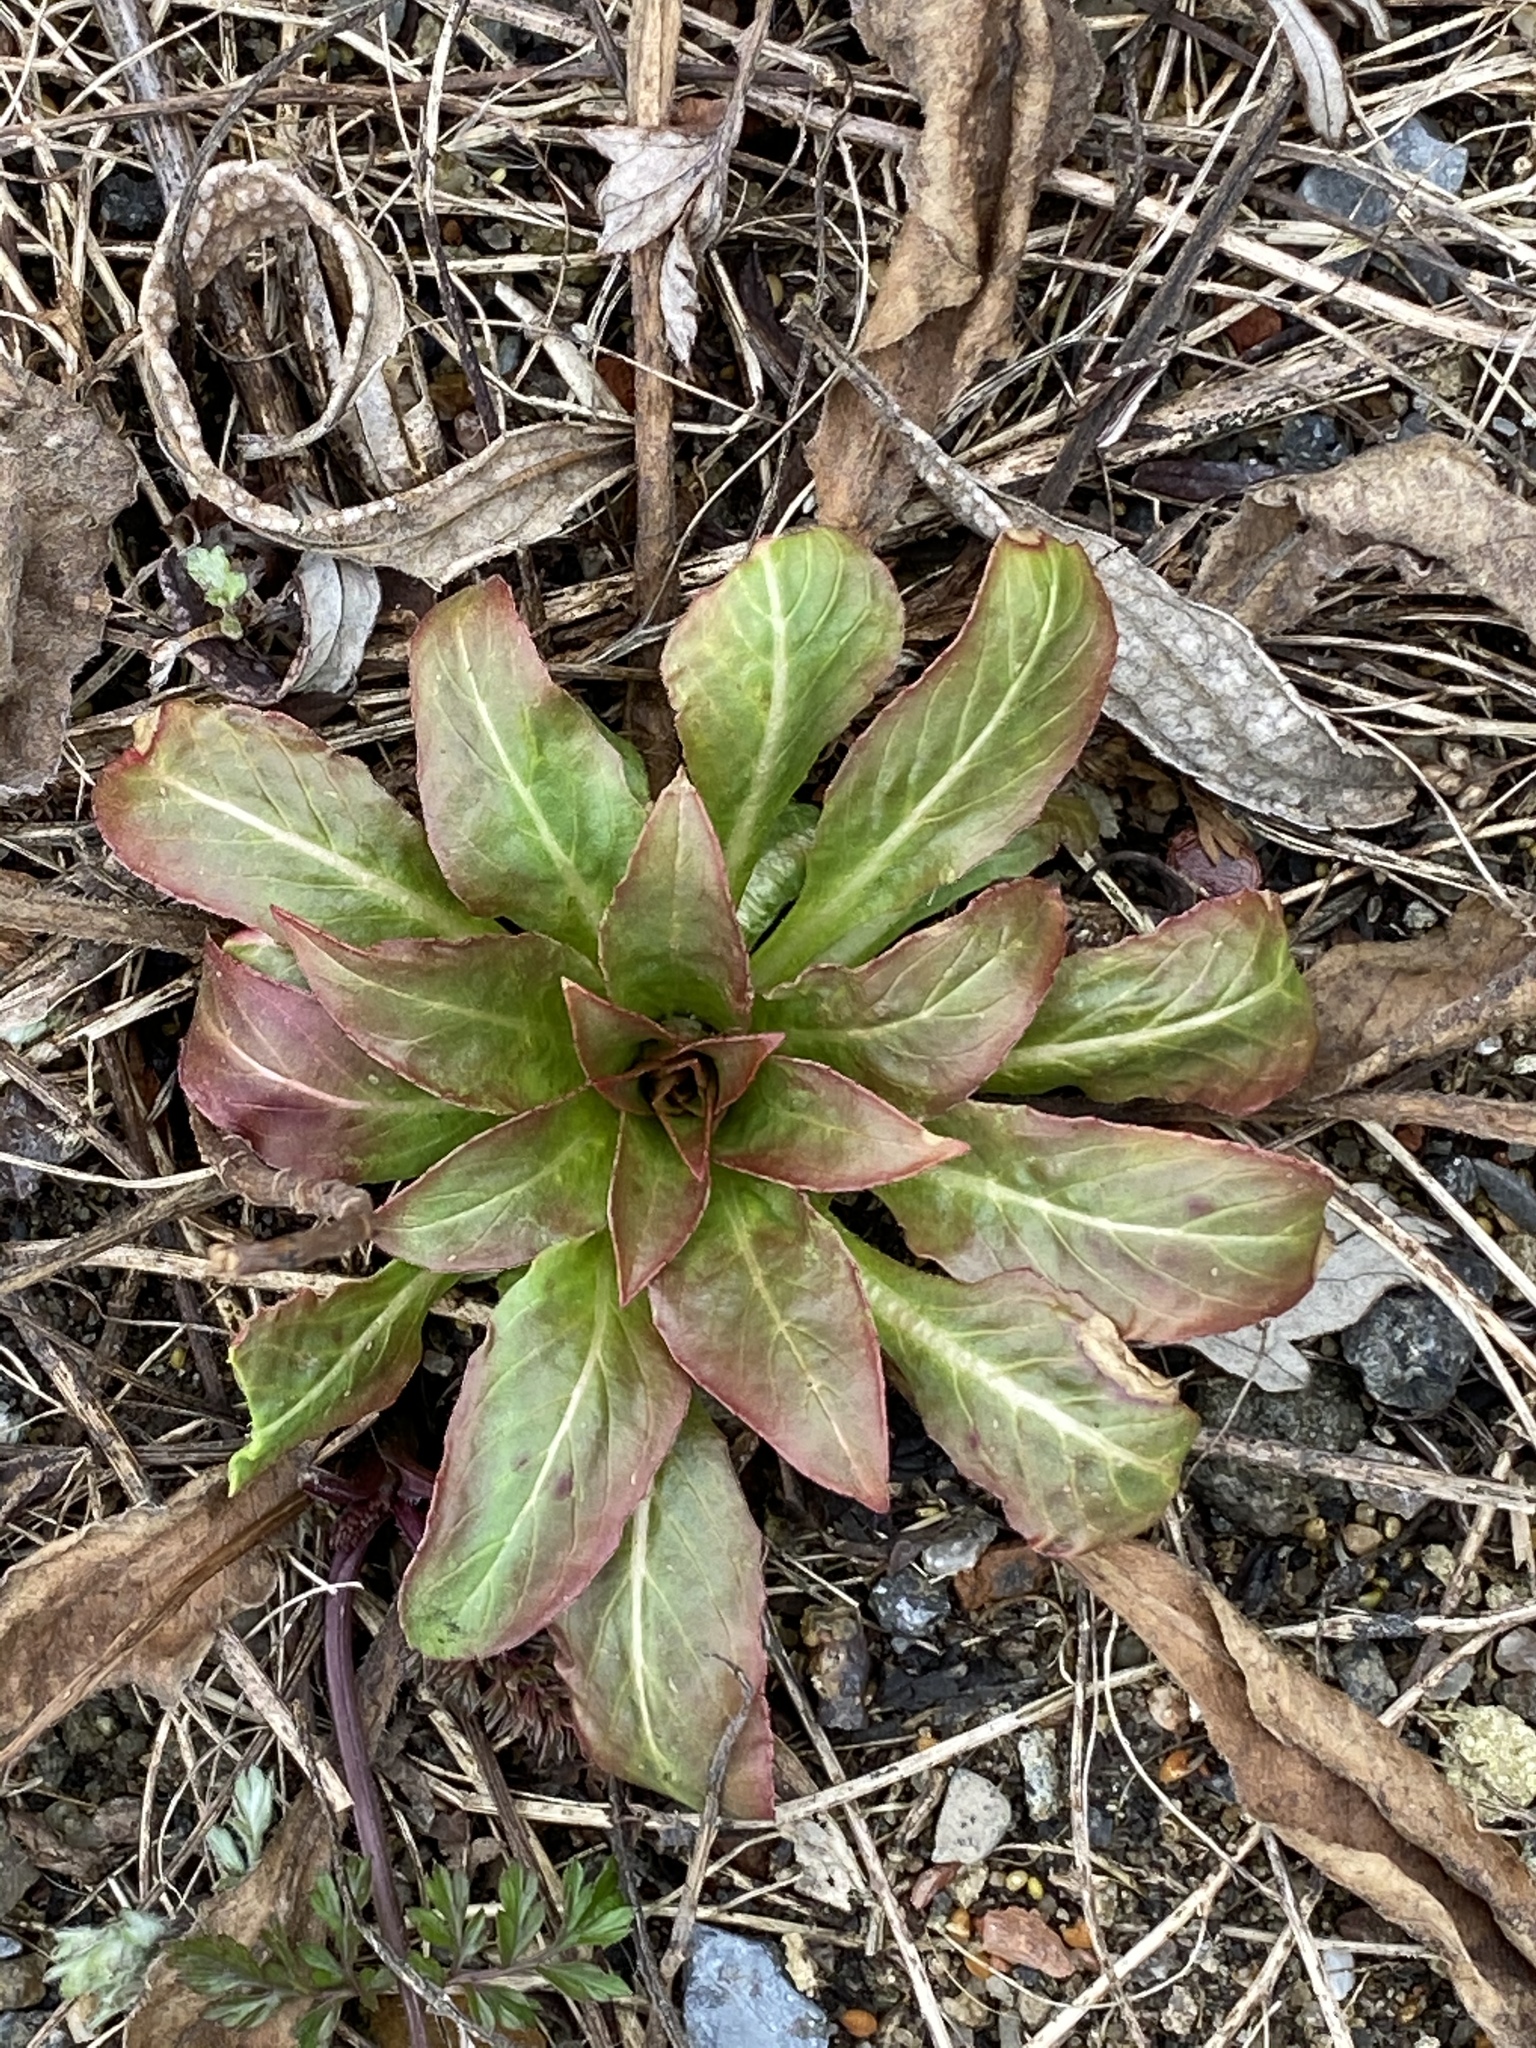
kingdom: Plantae
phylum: Tracheophyta
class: Magnoliopsida
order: Myrtales
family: Onagraceae
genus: Oenothera
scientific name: Oenothera biennis
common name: Common evening-primrose
